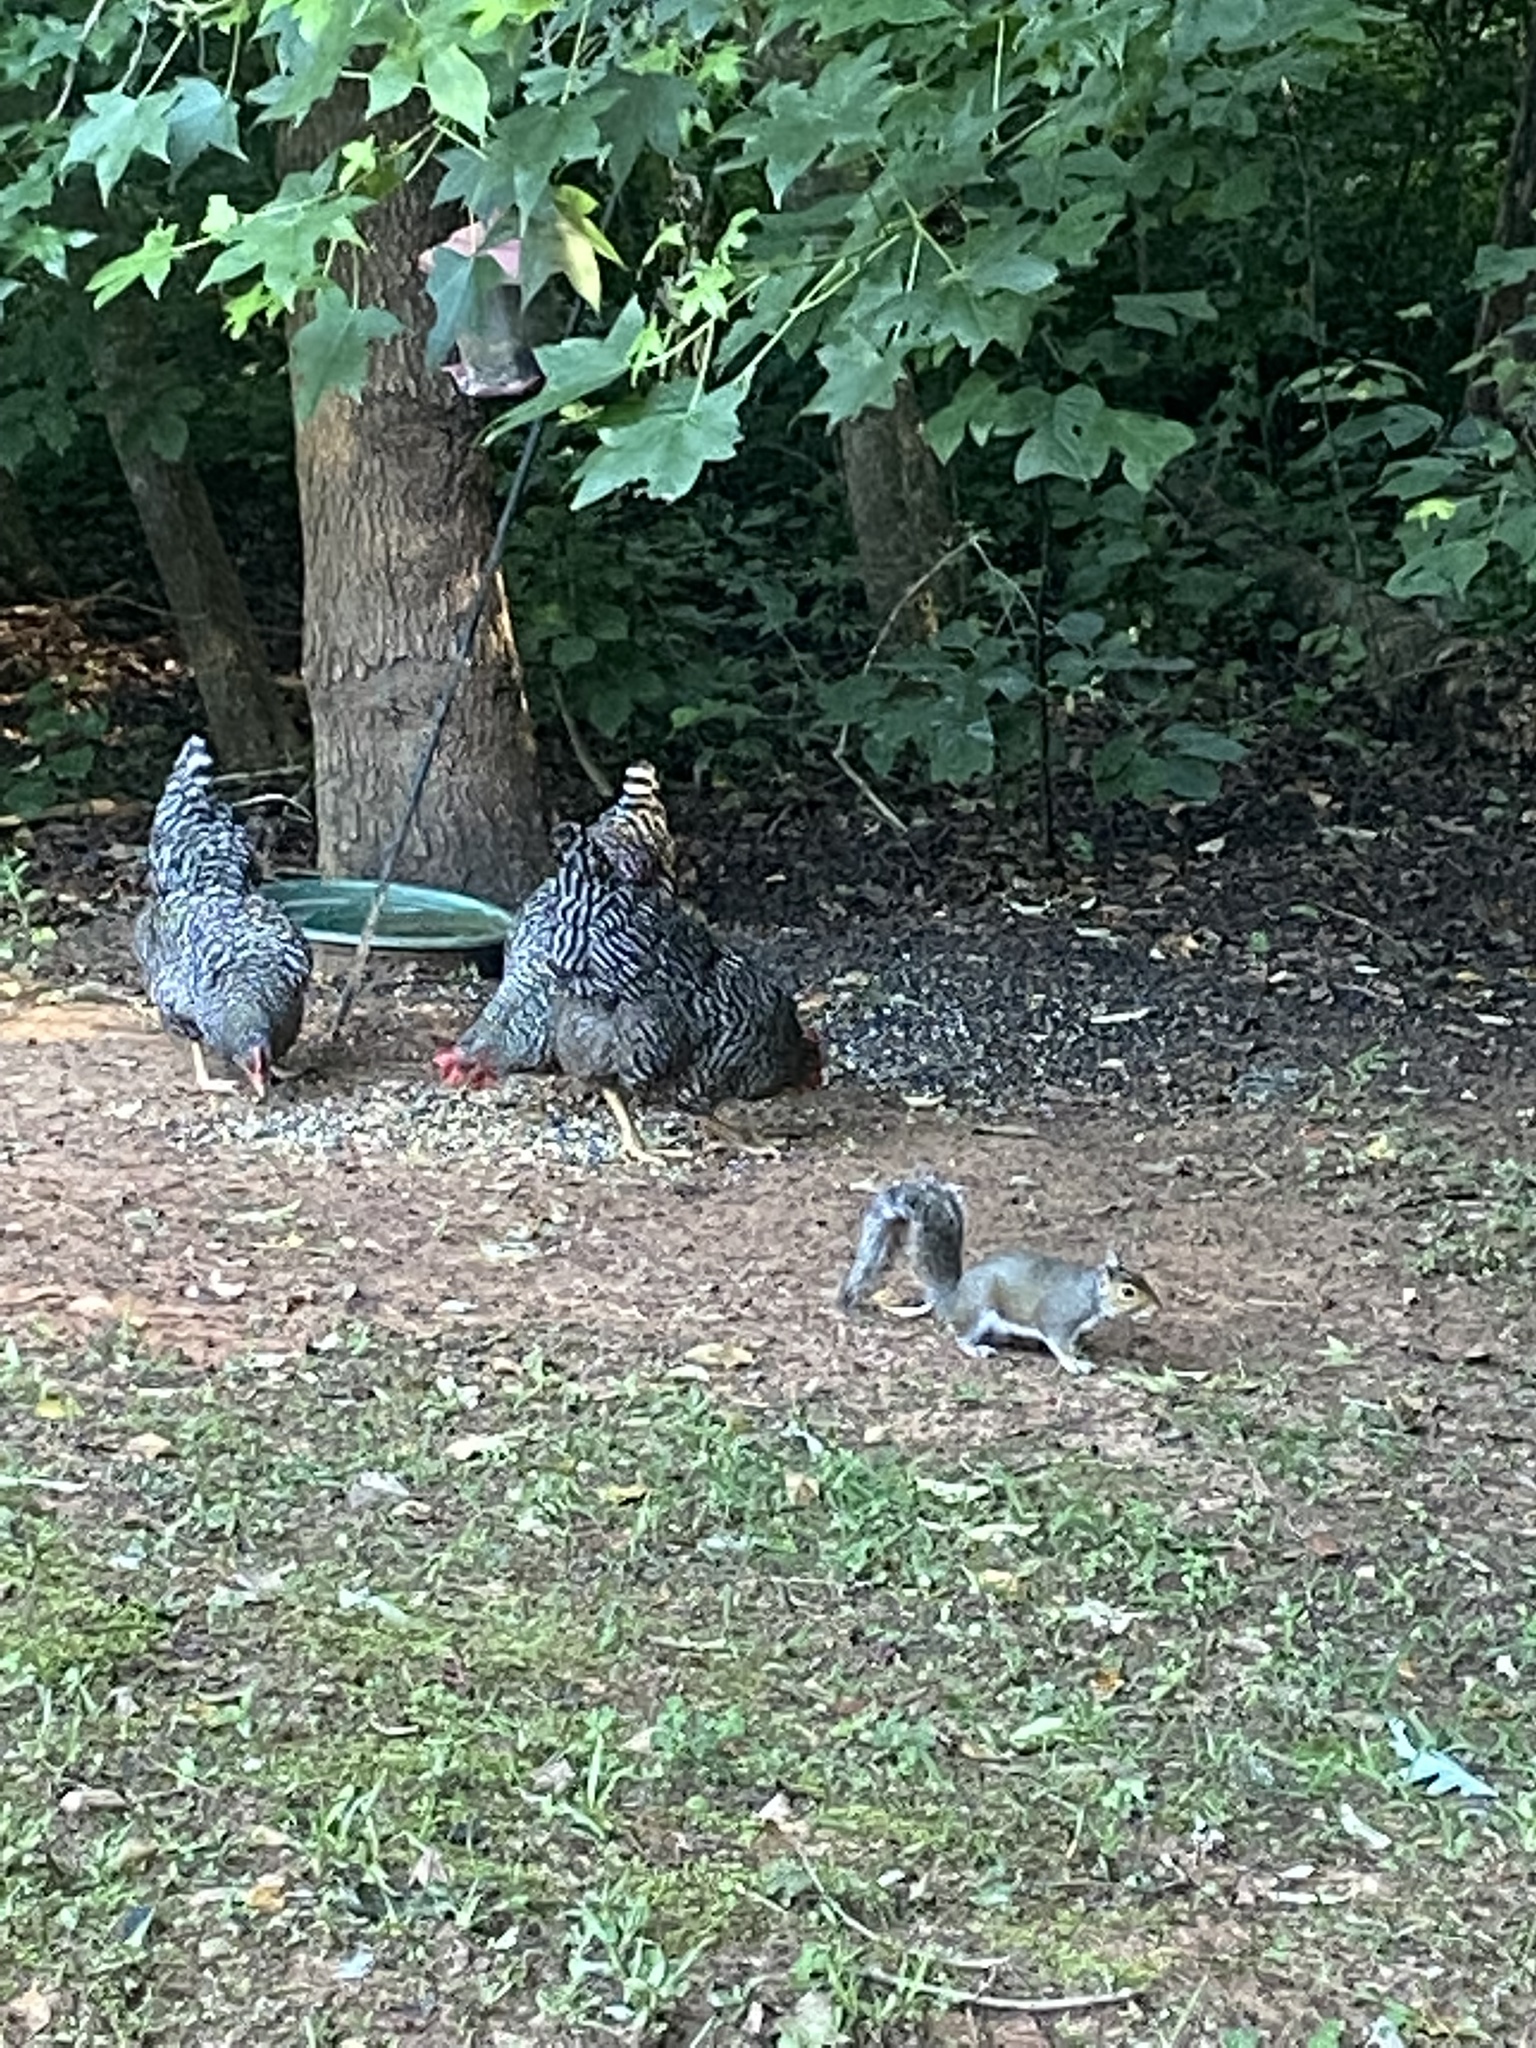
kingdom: Animalia
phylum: Chordata
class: Mammalia
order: Rodentia
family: Sciuridae
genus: Sciurus
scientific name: Sciurus carolinensis
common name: Eastern gray squirrel
